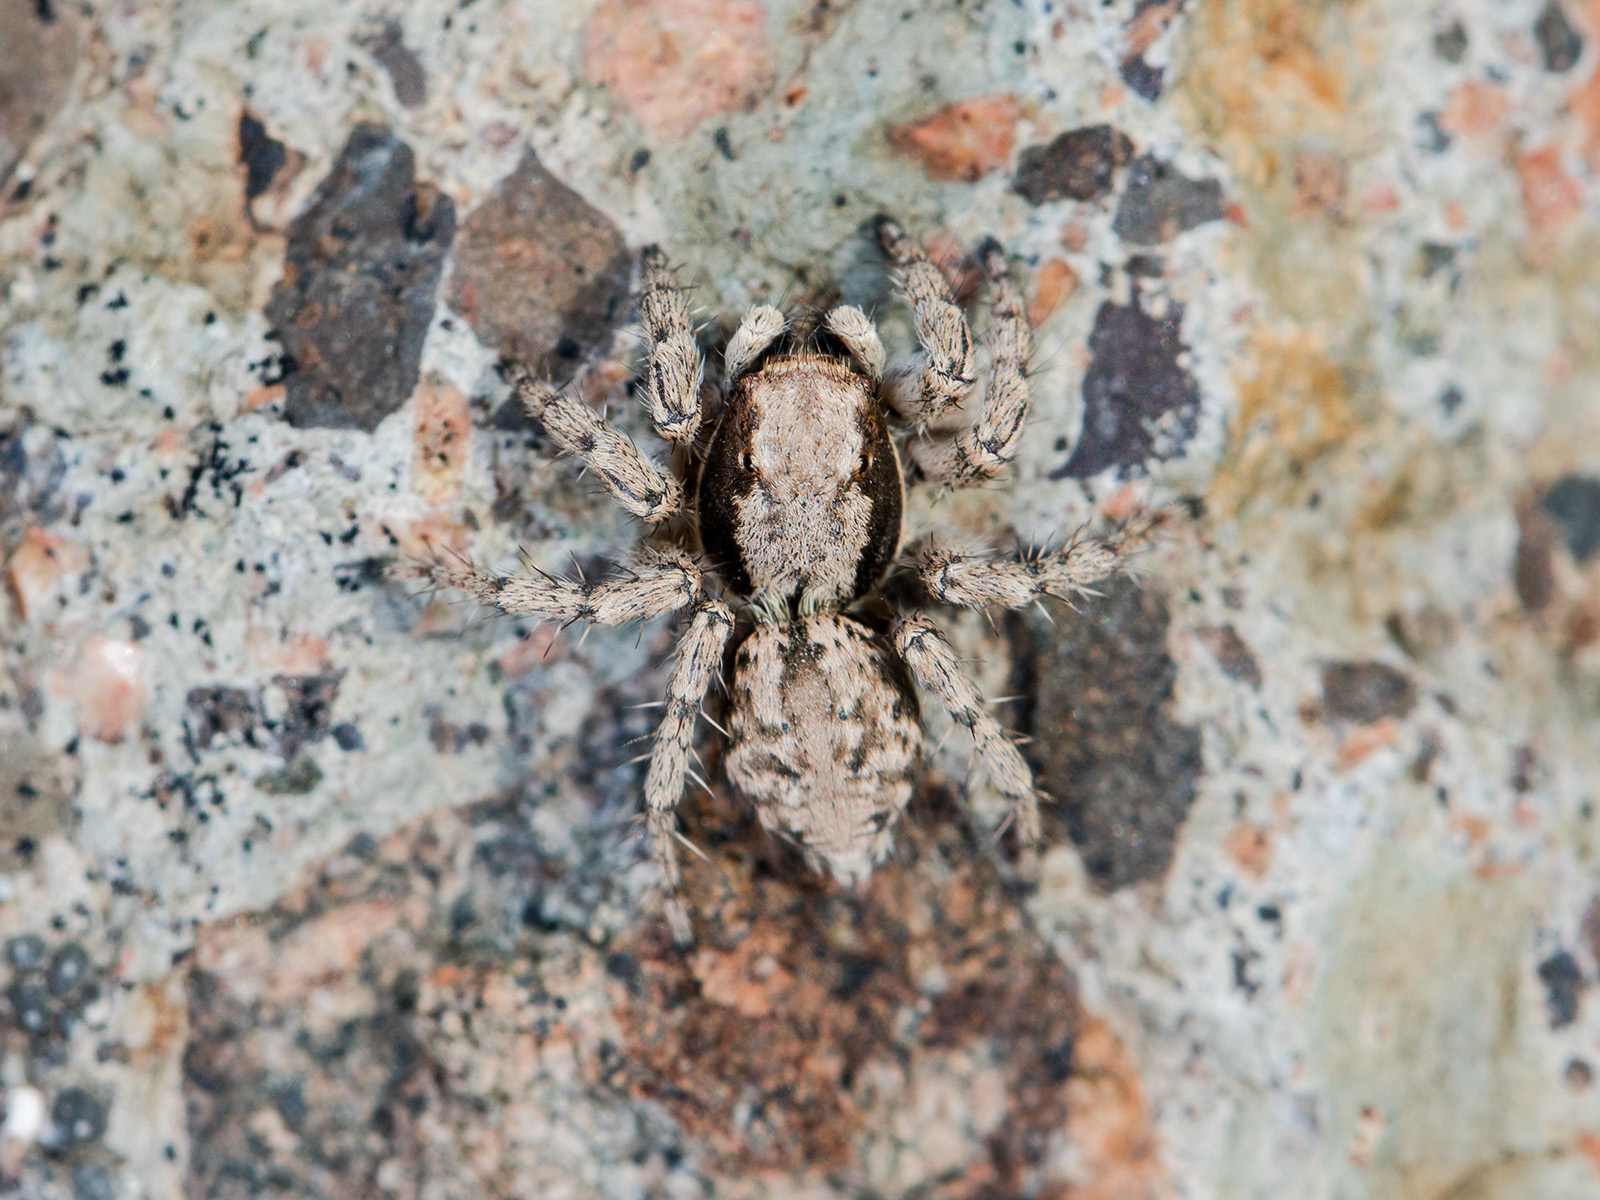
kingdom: Animalia
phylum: Arthropoda
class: Arachnida
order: Araneae
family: Salticidae
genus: Rafalus
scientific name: Rafalus variegatus
